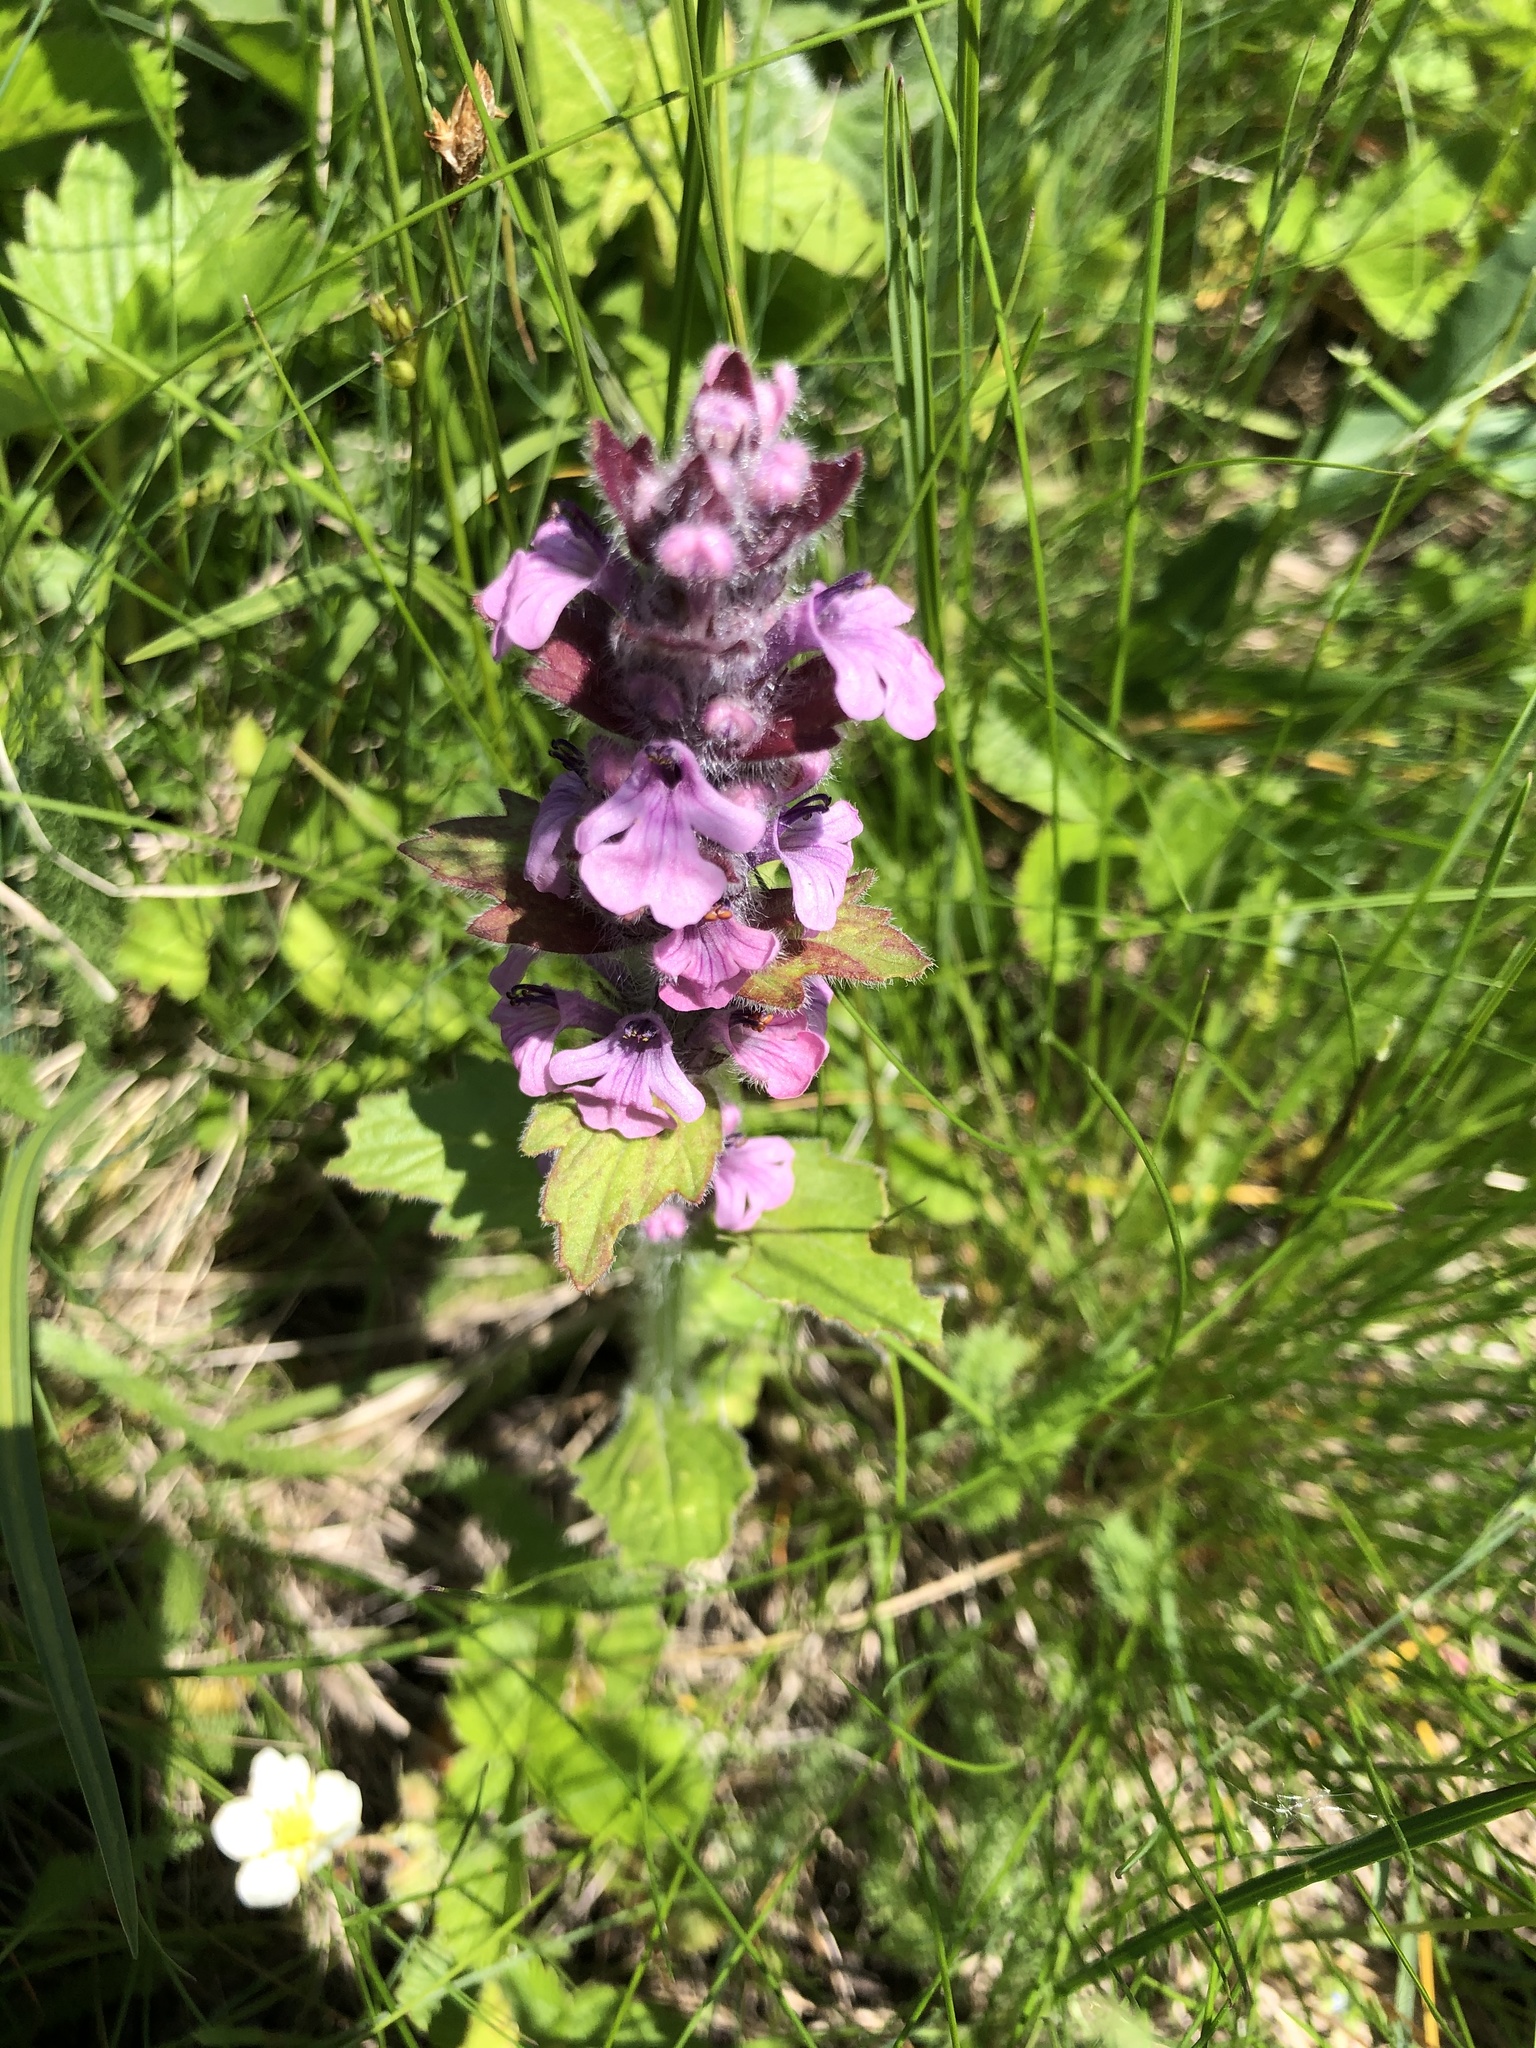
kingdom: Plantae
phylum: Tracheophyta
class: Magnoliopsida
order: Lamiales
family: Lamiaceae
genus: Ajuga
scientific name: Ajuga genevensis
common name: Blue bugle
